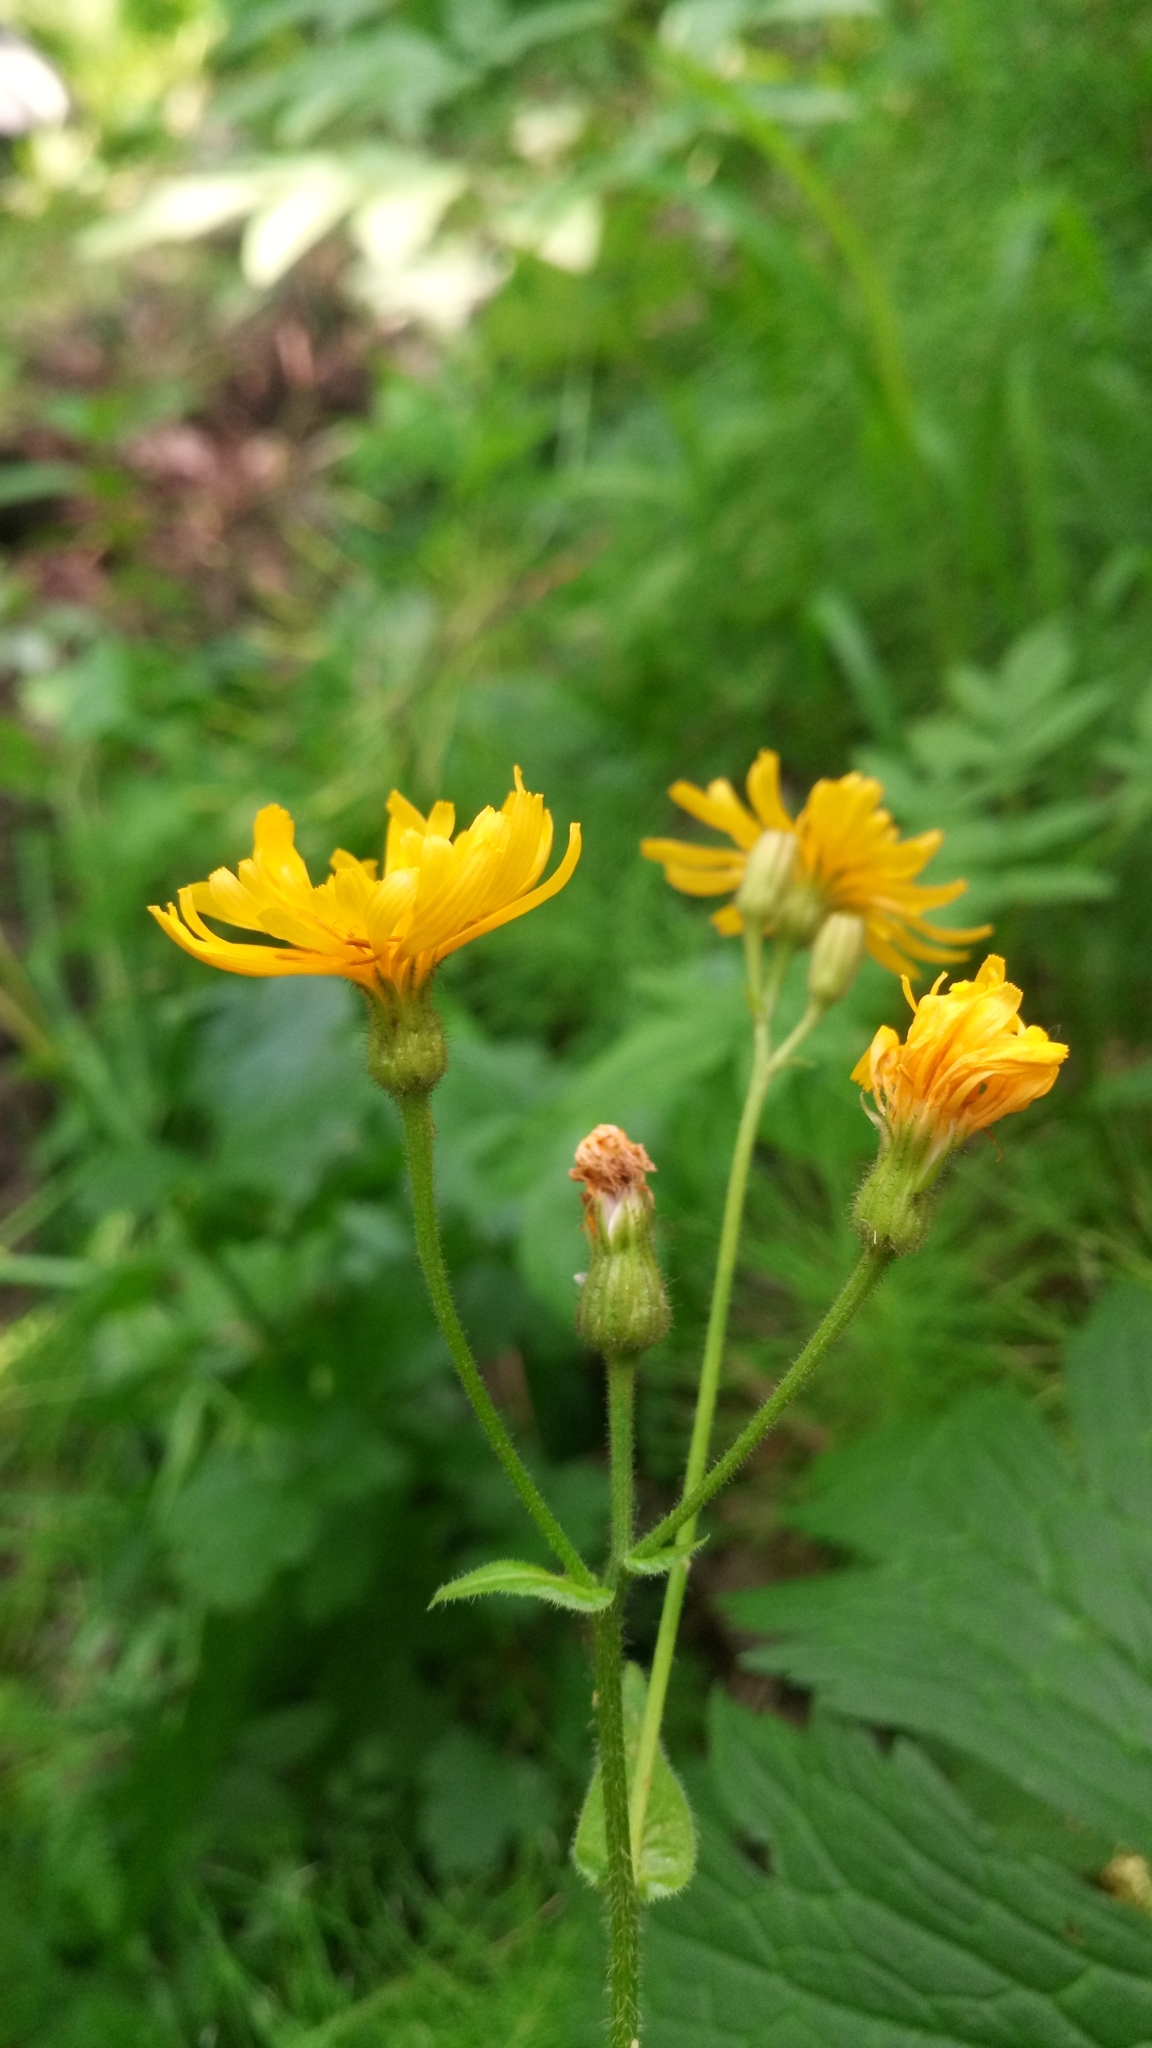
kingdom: Plantae
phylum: Tracheophyta
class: Magnoliopsida
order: Asterales
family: Asteraceae
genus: Crepis
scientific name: Crepis sibirica
